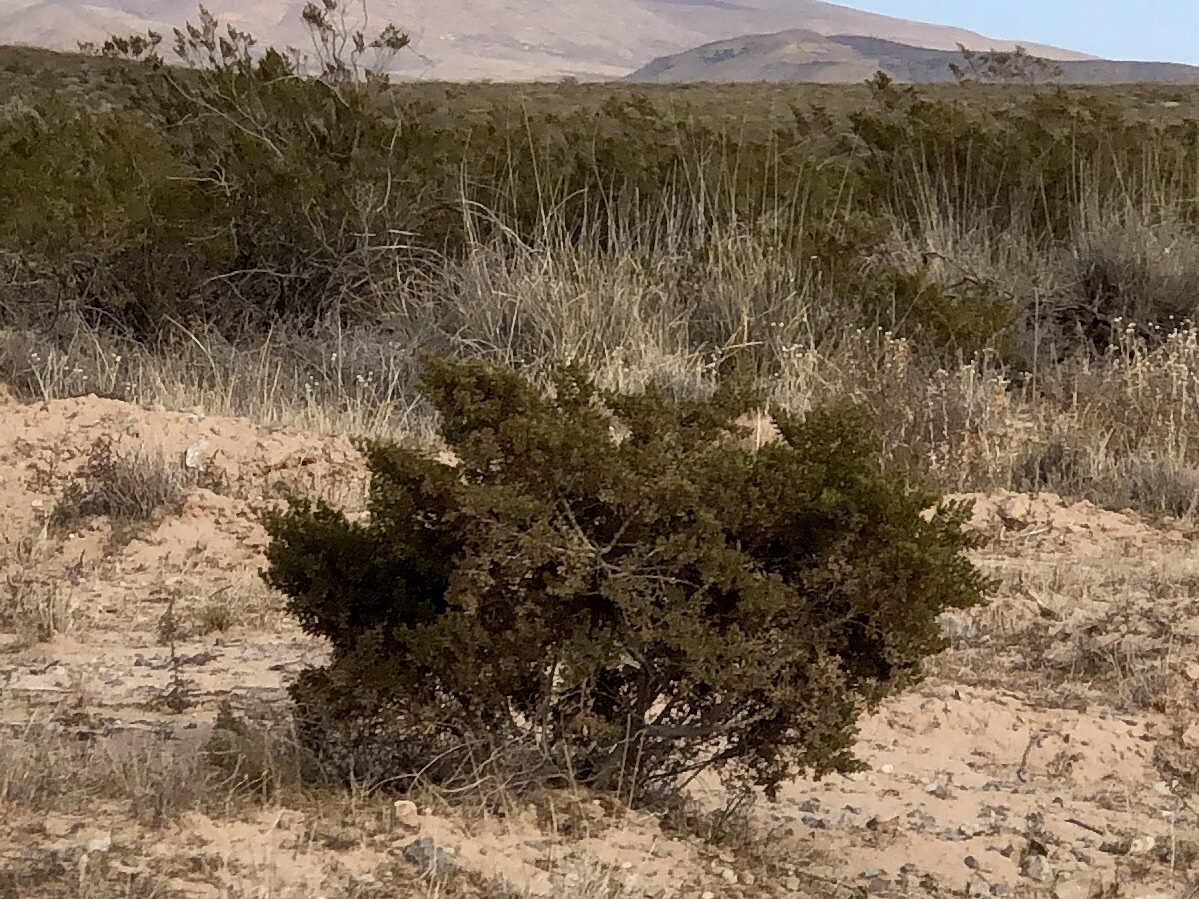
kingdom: Plantae
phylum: Tracheophyta
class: Magnoliopsida
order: Zygophyllales
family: Zygophyllaceae
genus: Larrea
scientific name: Larrea tridentata
